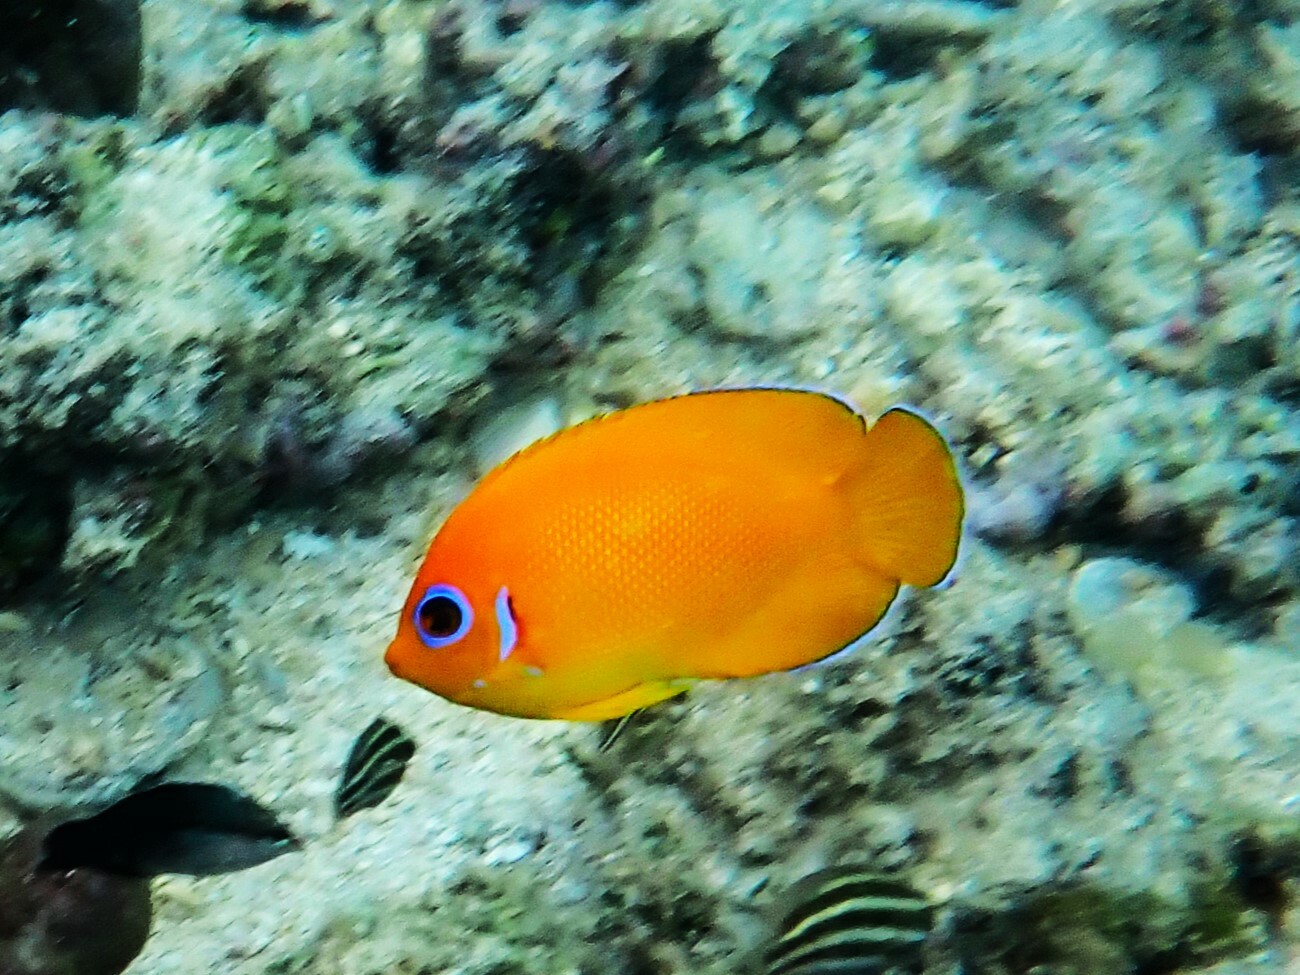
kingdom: Animalia
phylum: Chordata
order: Perciformes
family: Pomacanthidae
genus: Centropyge
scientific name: Centropyge flavissima
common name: Lemonpeel angelfish
